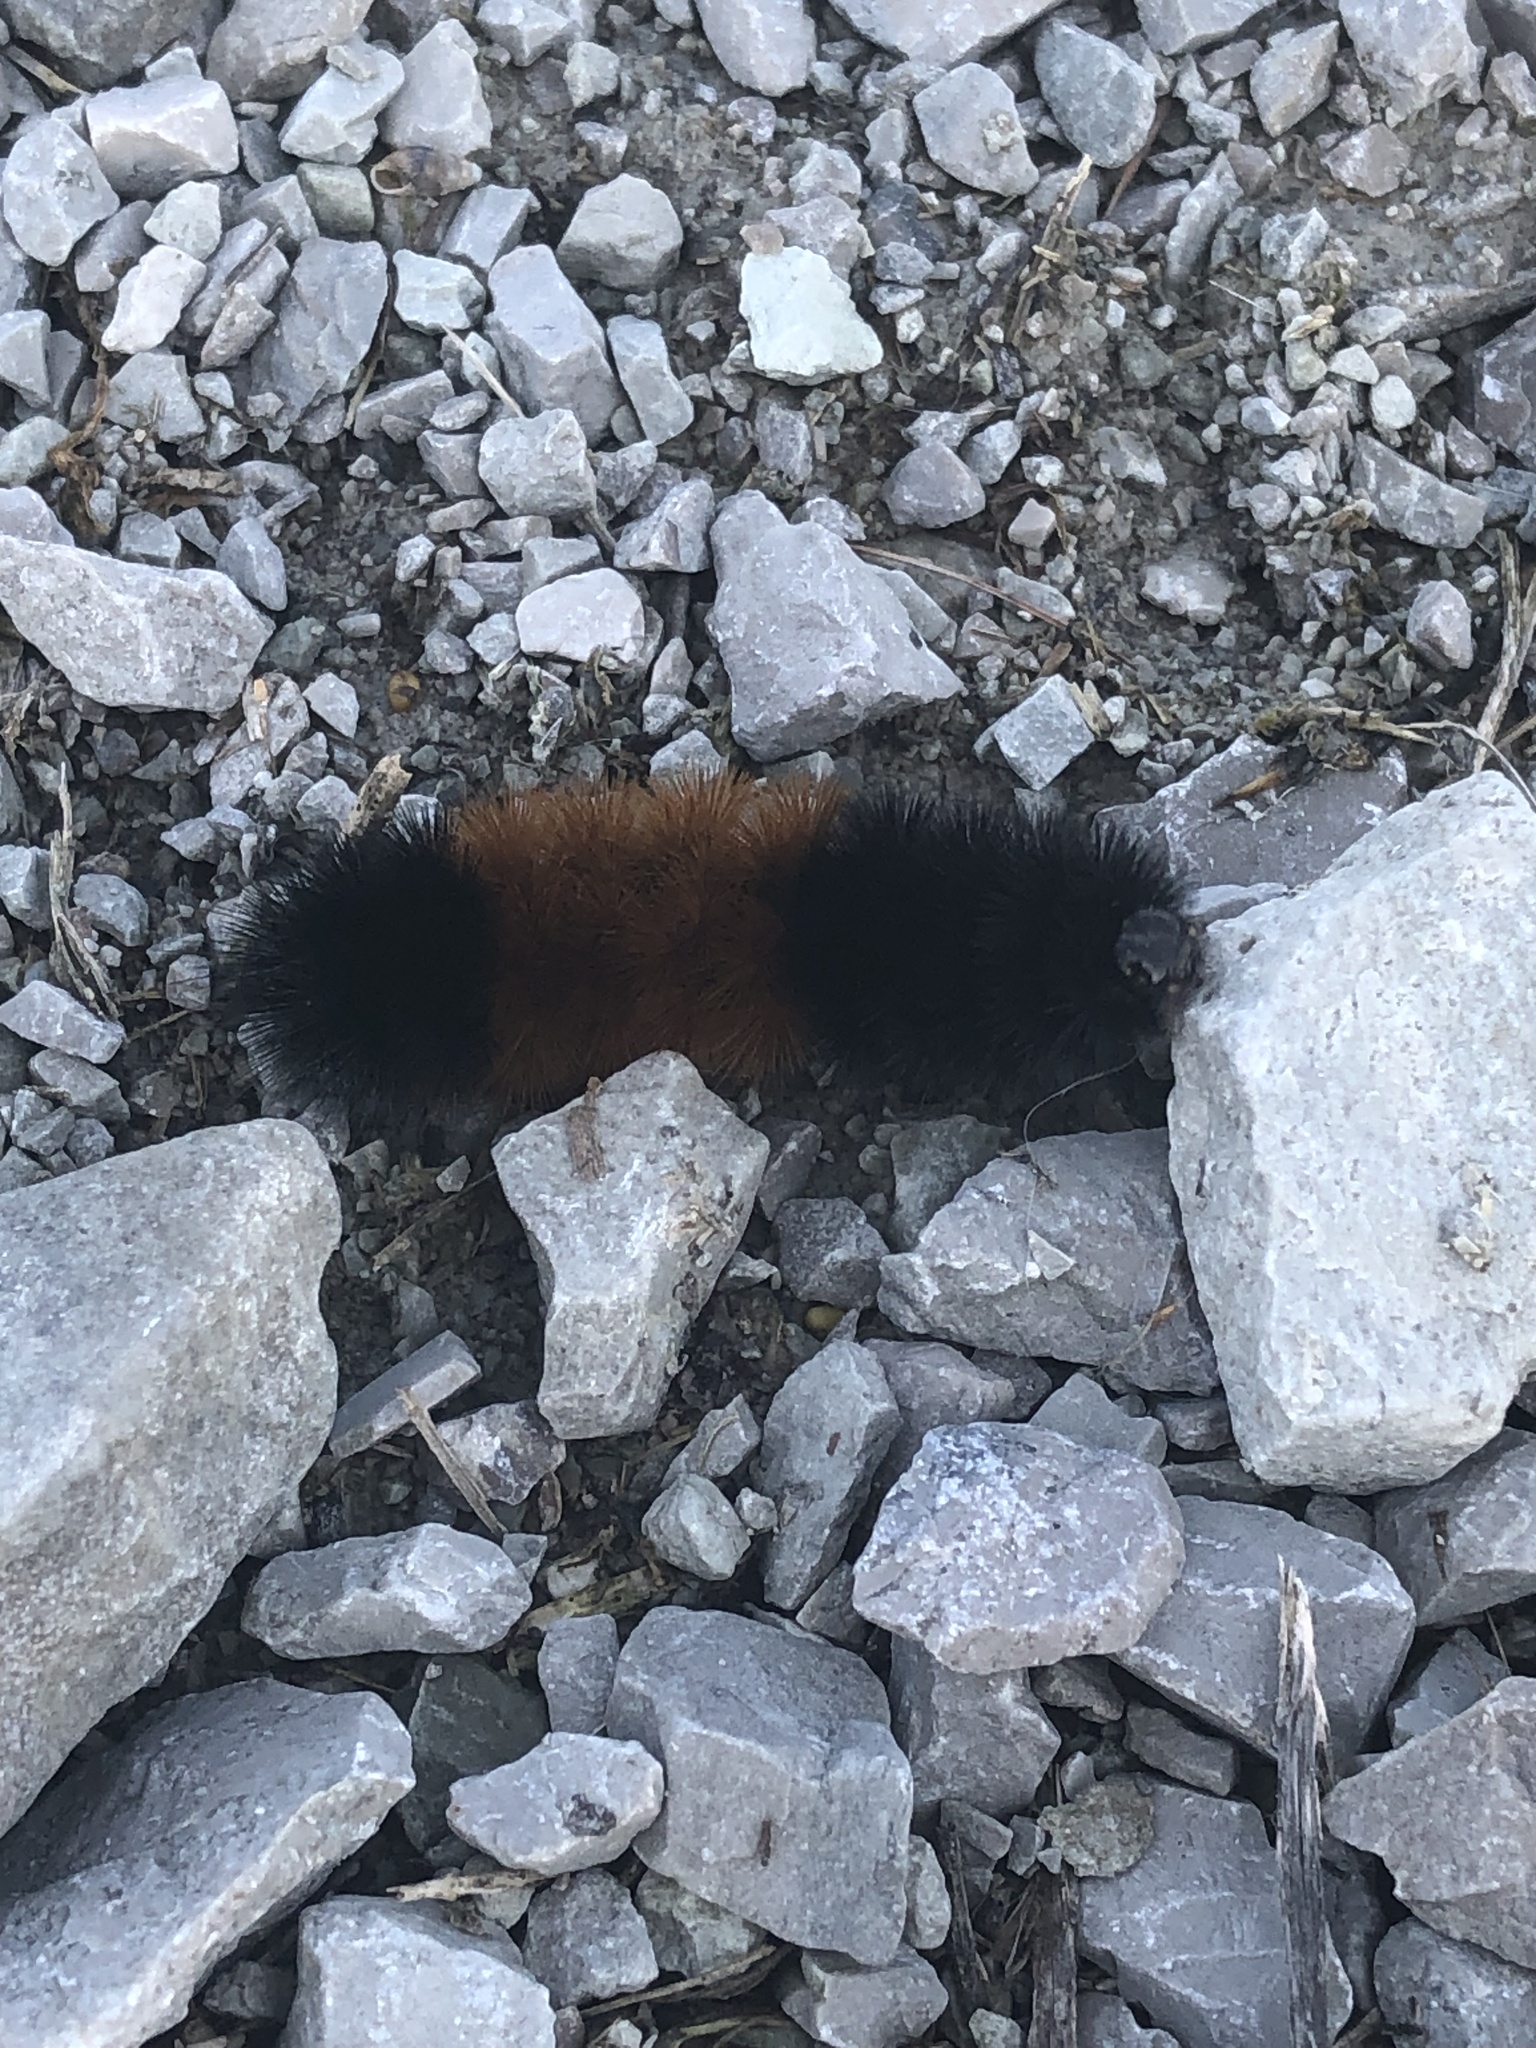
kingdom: Animalia
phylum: Arthropoda
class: Insecta
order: Lepidoptera
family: Erebidae
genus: Pyrrharctia
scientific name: Pyrrharctia isabella
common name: Isabella tiger moth
